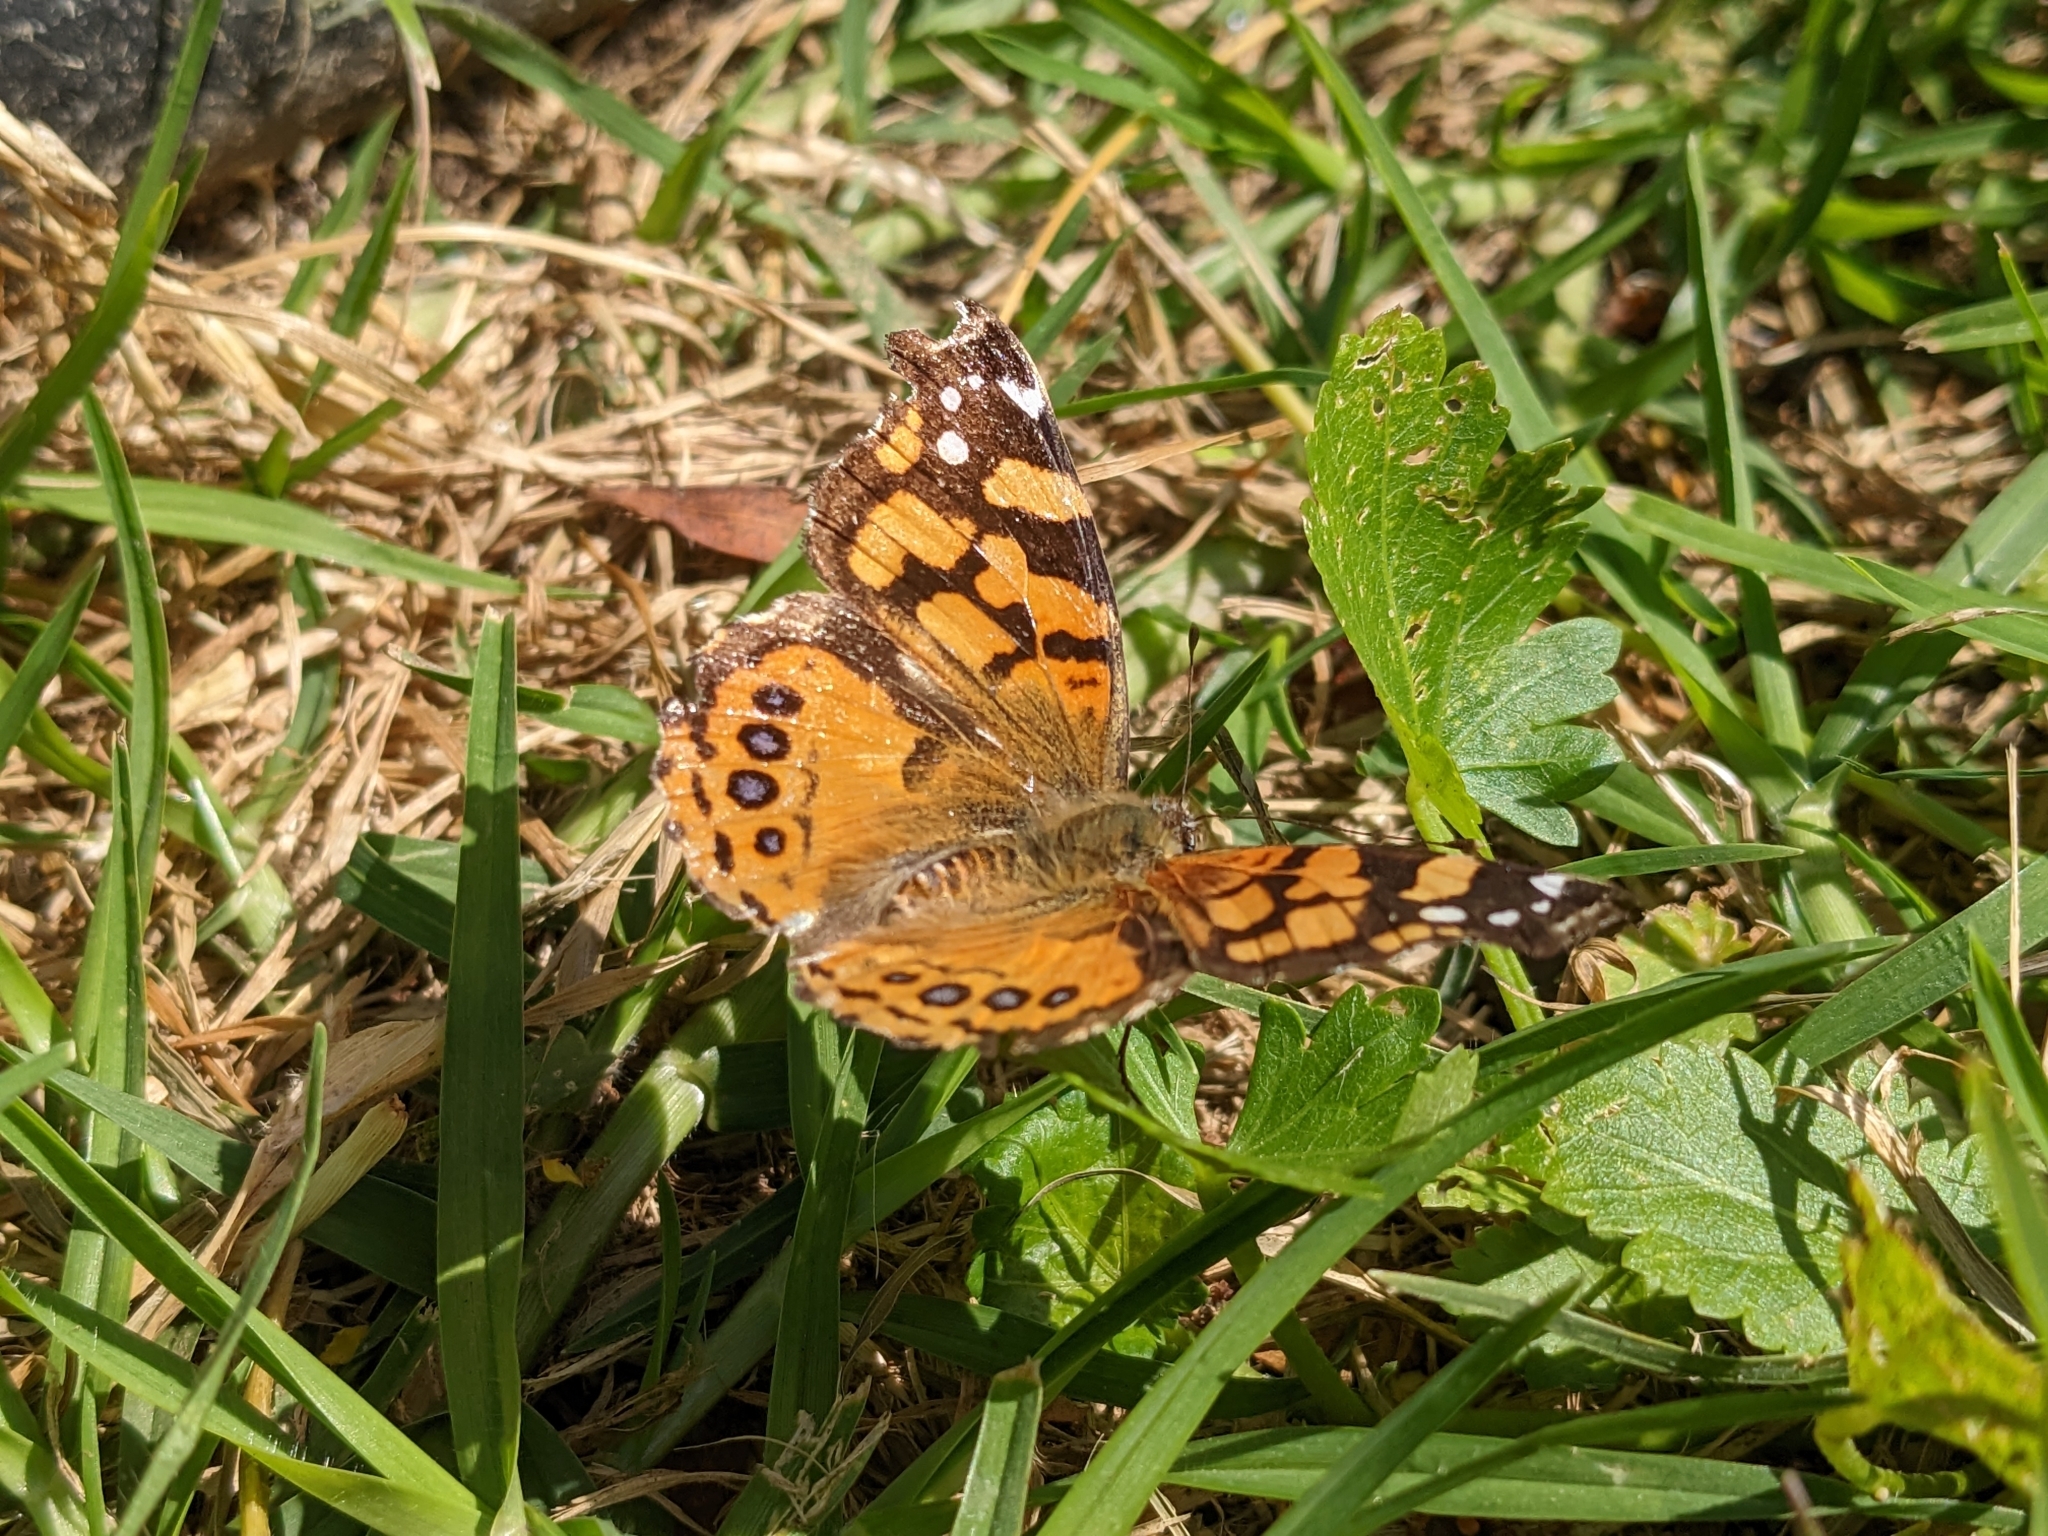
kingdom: Animalia
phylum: Arthropoda
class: Insecta
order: Lepidoptera
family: Nymphalidae
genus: Vanessa
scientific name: Vanessa annabella
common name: West coast lady
